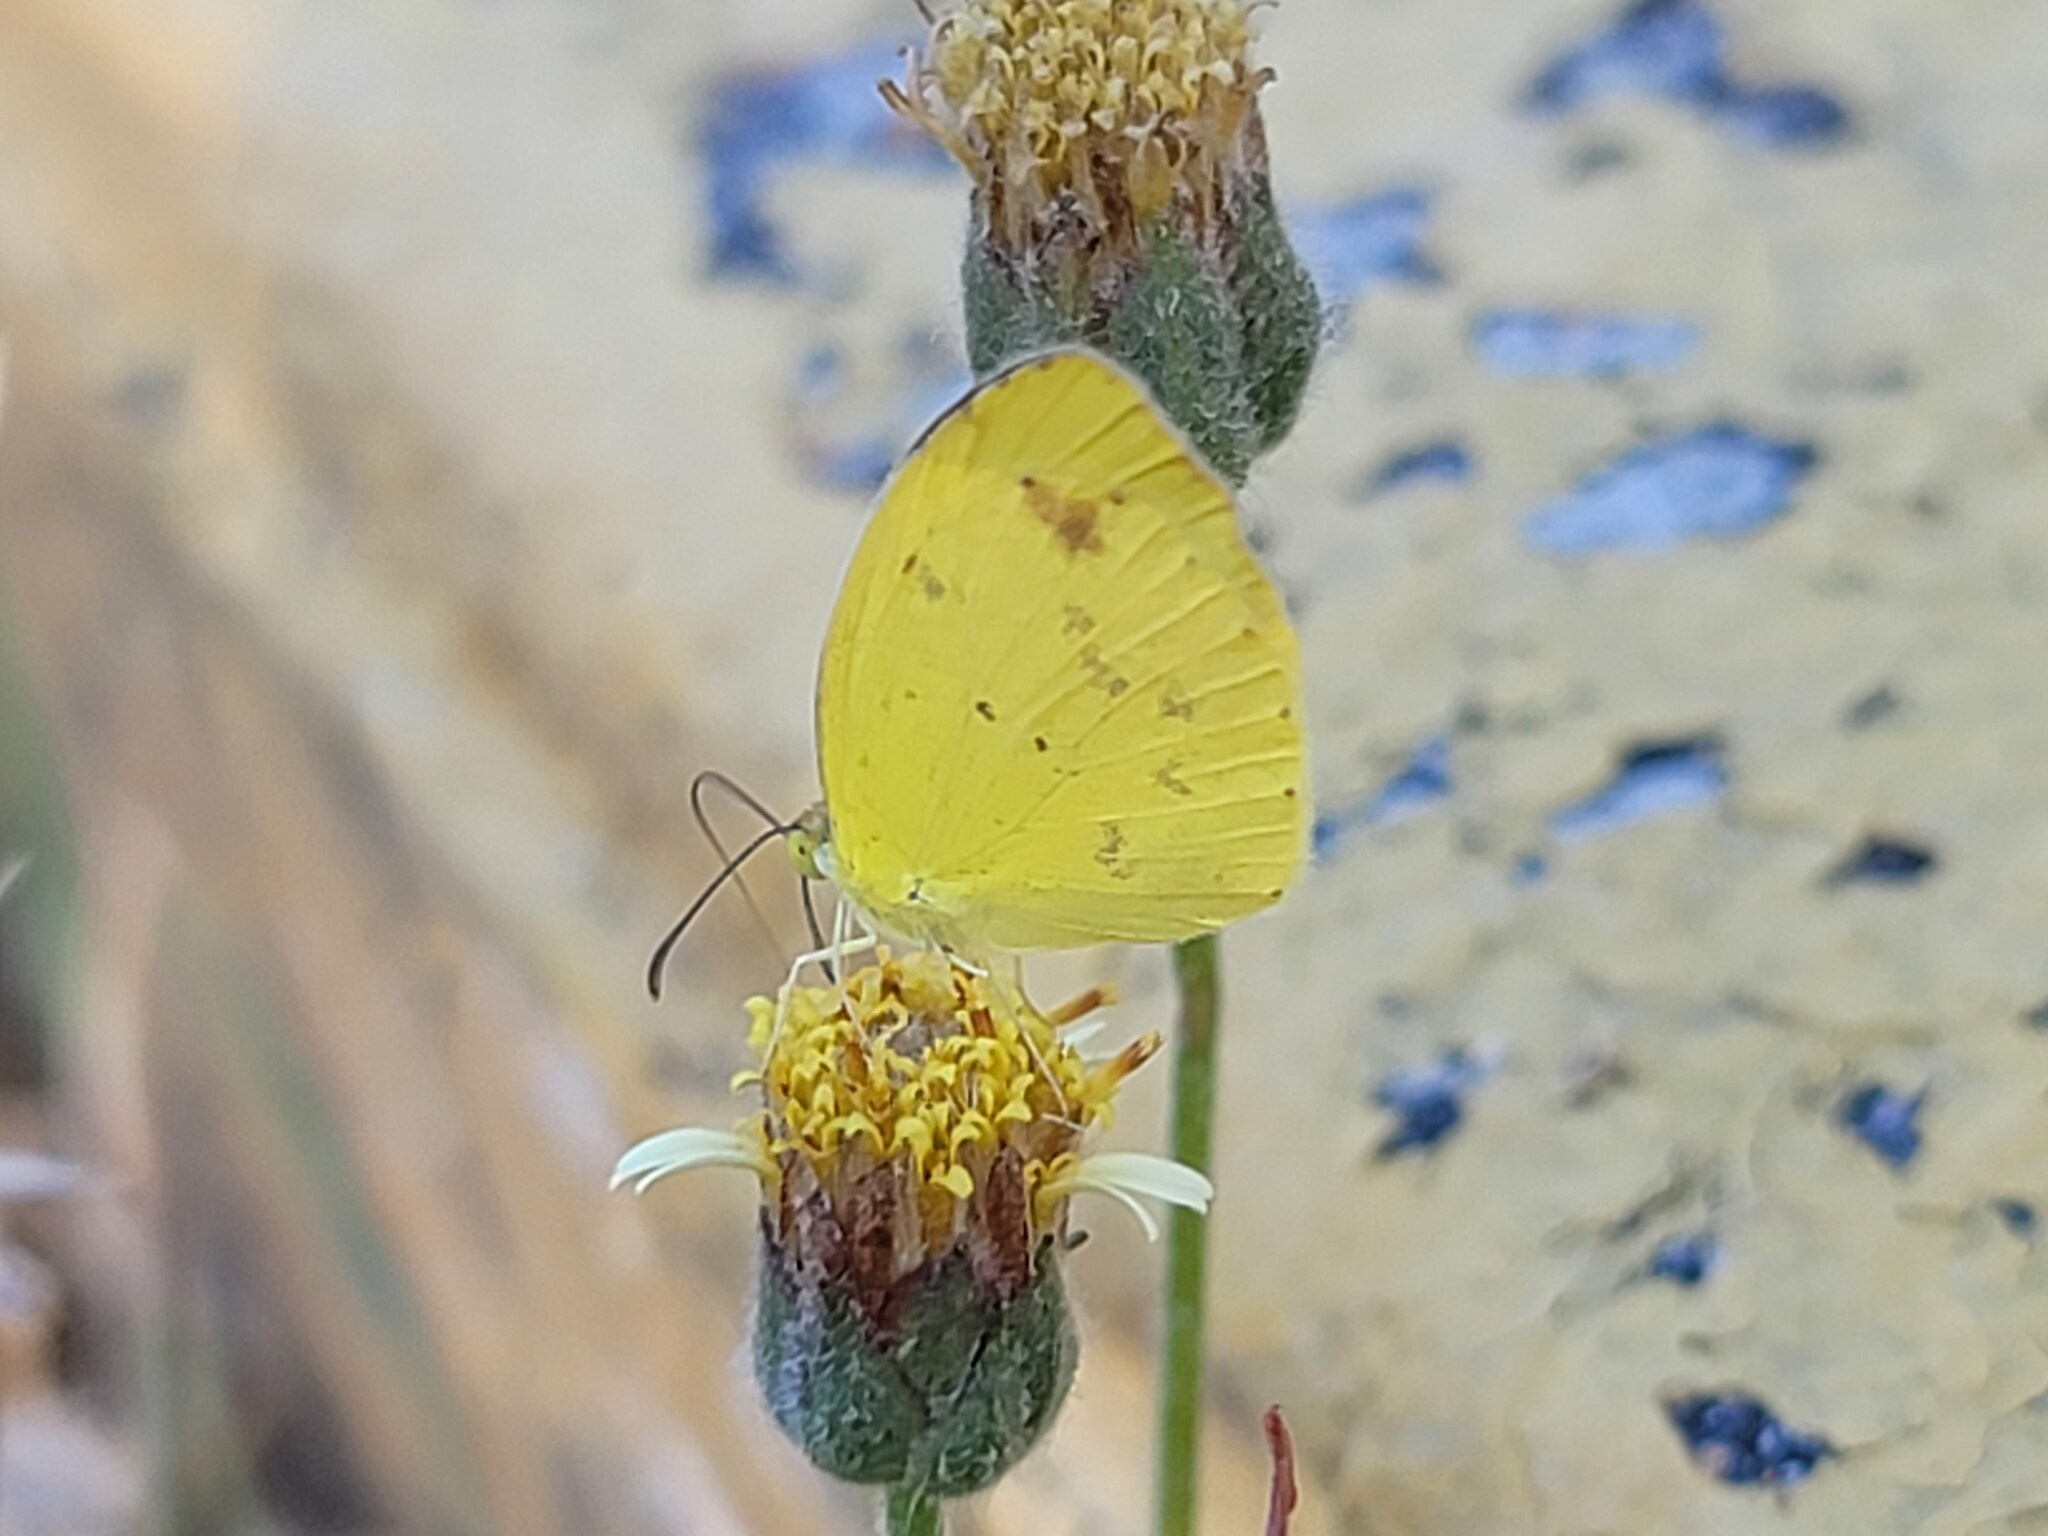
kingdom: Animalia
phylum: Arthropoda
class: Insecta
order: Lepidoptera
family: Pieridae
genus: Pyrisitia
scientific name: Pyrisitia nise
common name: Mimosa yellow
